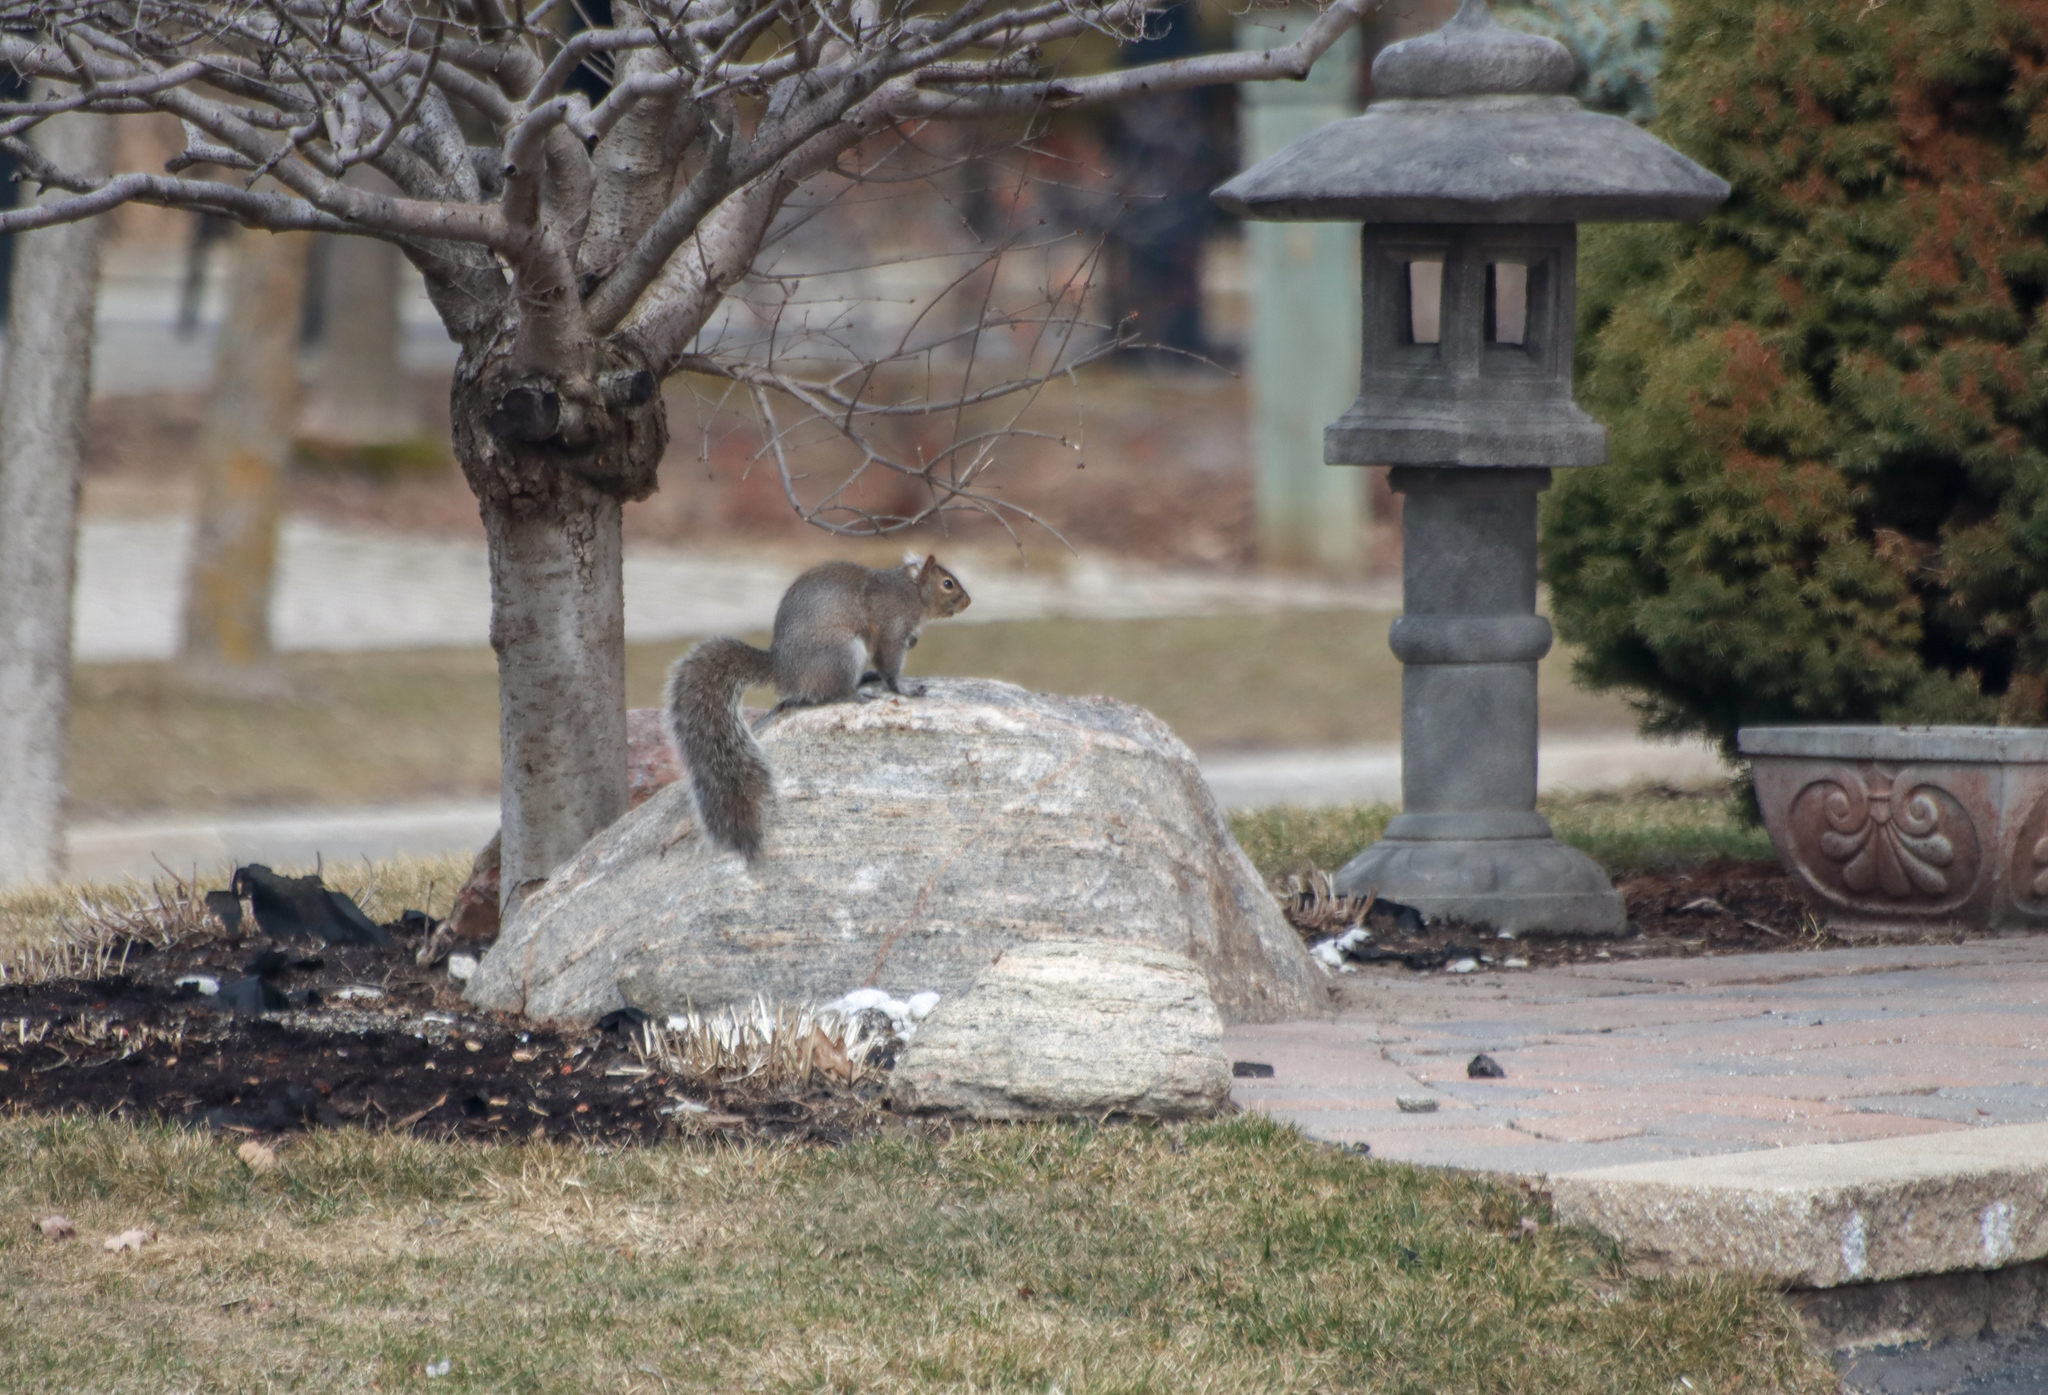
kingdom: Animalia
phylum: Chordata
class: Mammalia
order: Rodentia
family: Sciuridae
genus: Sciurus
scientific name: Sciurus carolinensis
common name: Eastern gray squirrel
